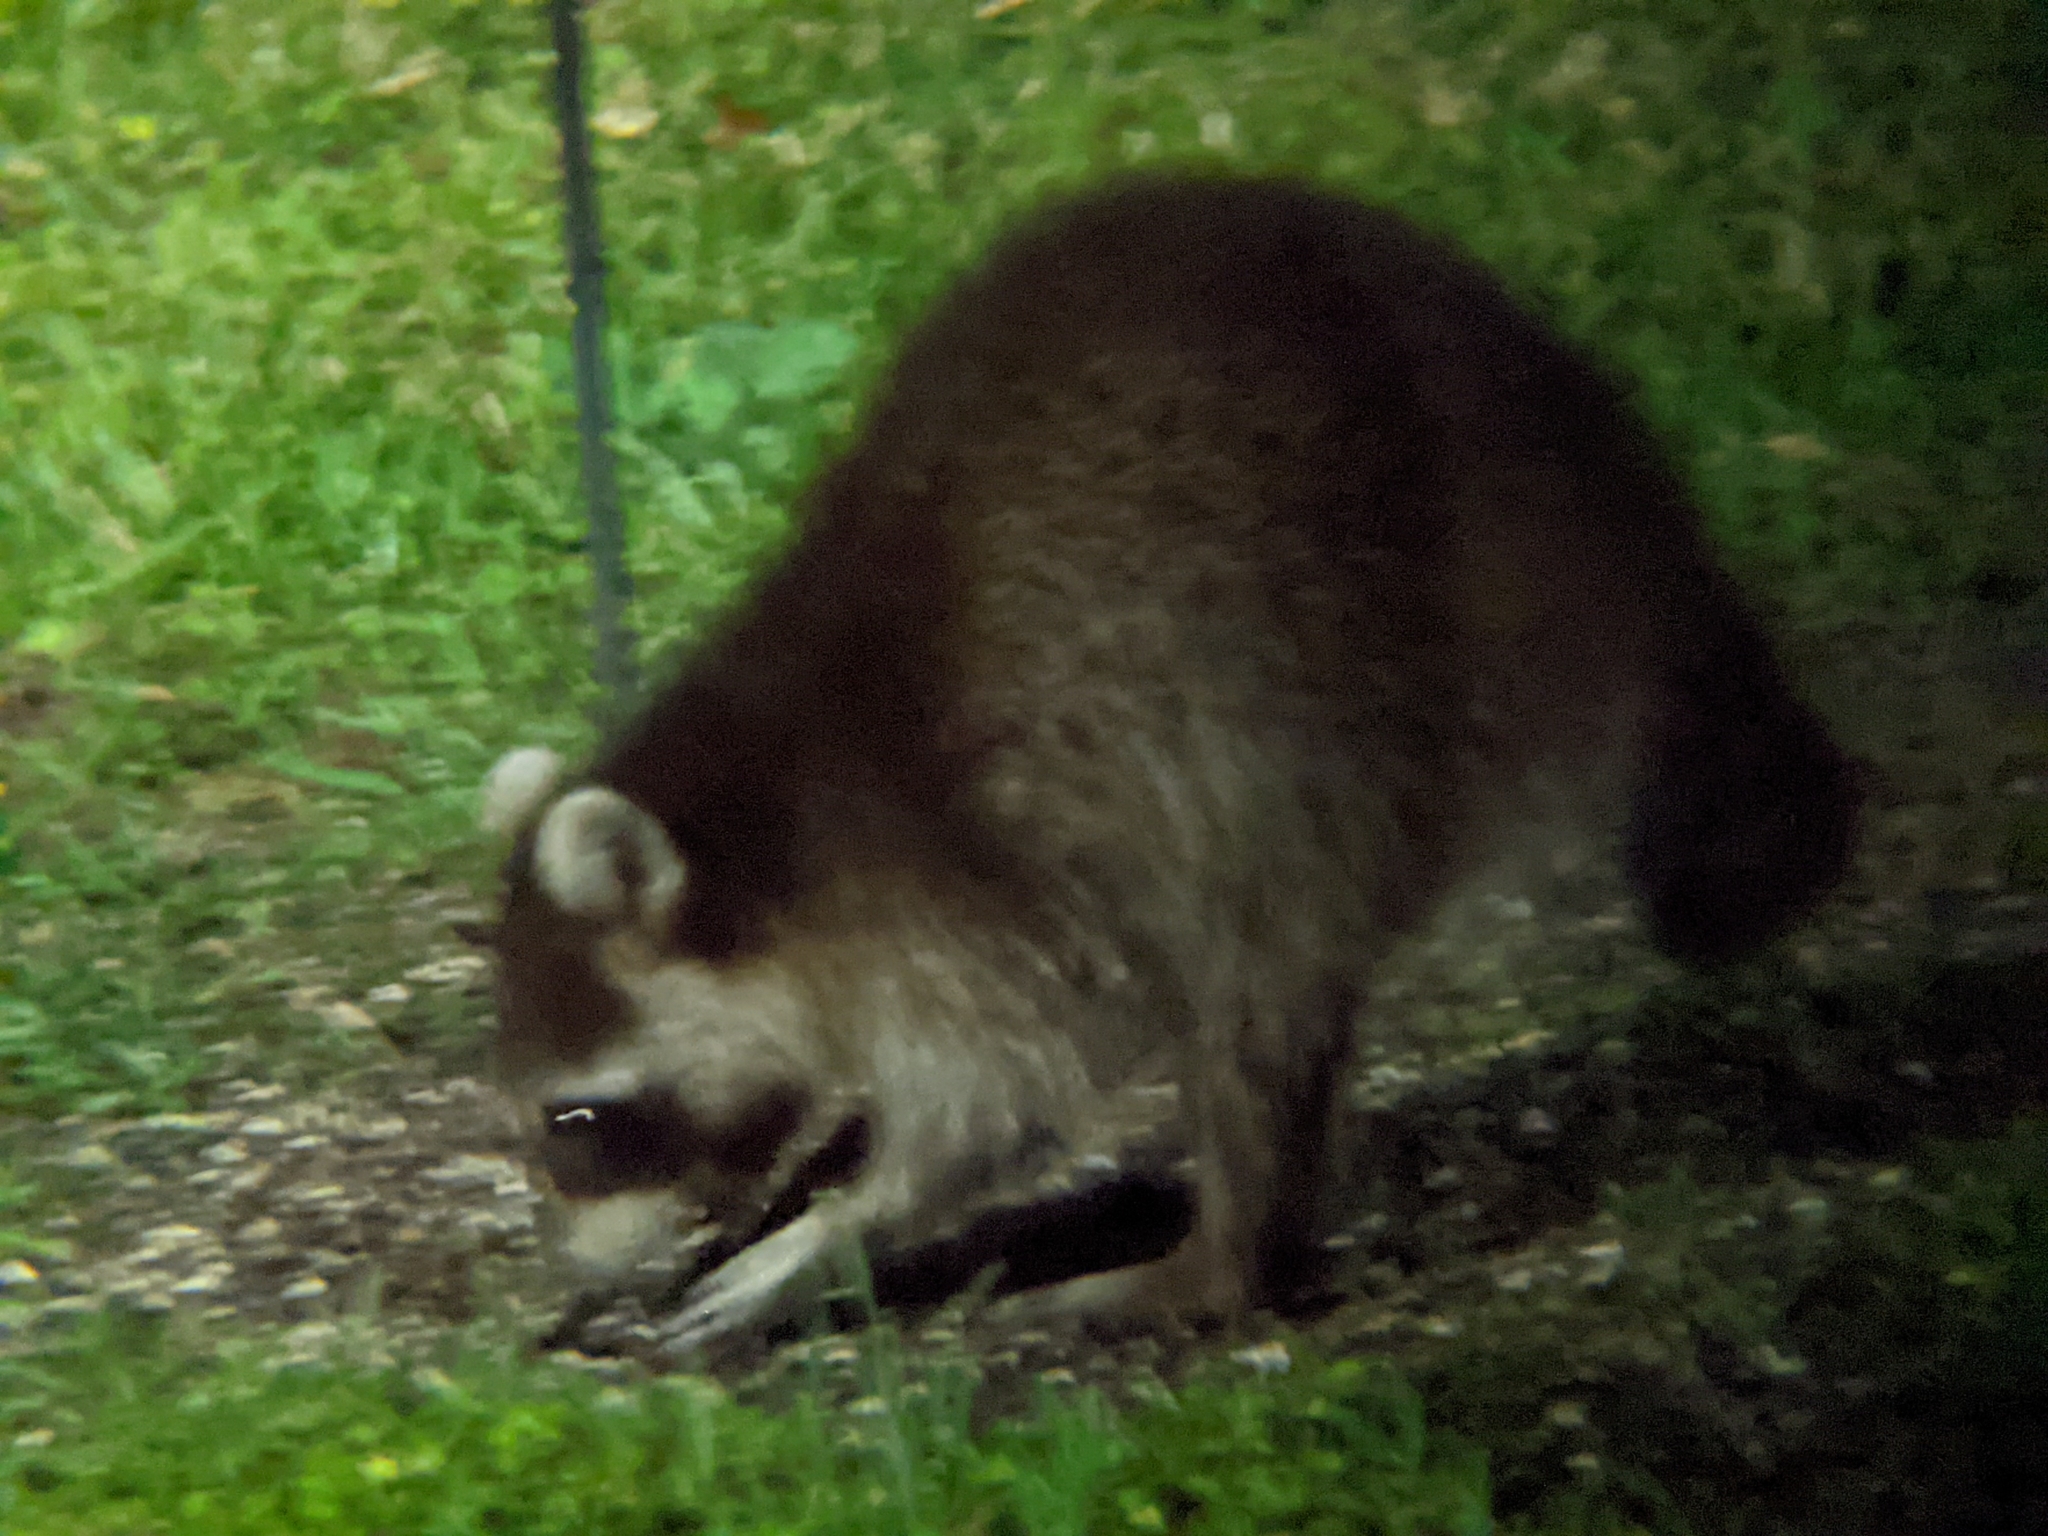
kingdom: Animalia
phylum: Chordata
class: Mammalia
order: Carnivora
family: Procyonidae
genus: Procyon
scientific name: Procyon lotor
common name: Raccoon
